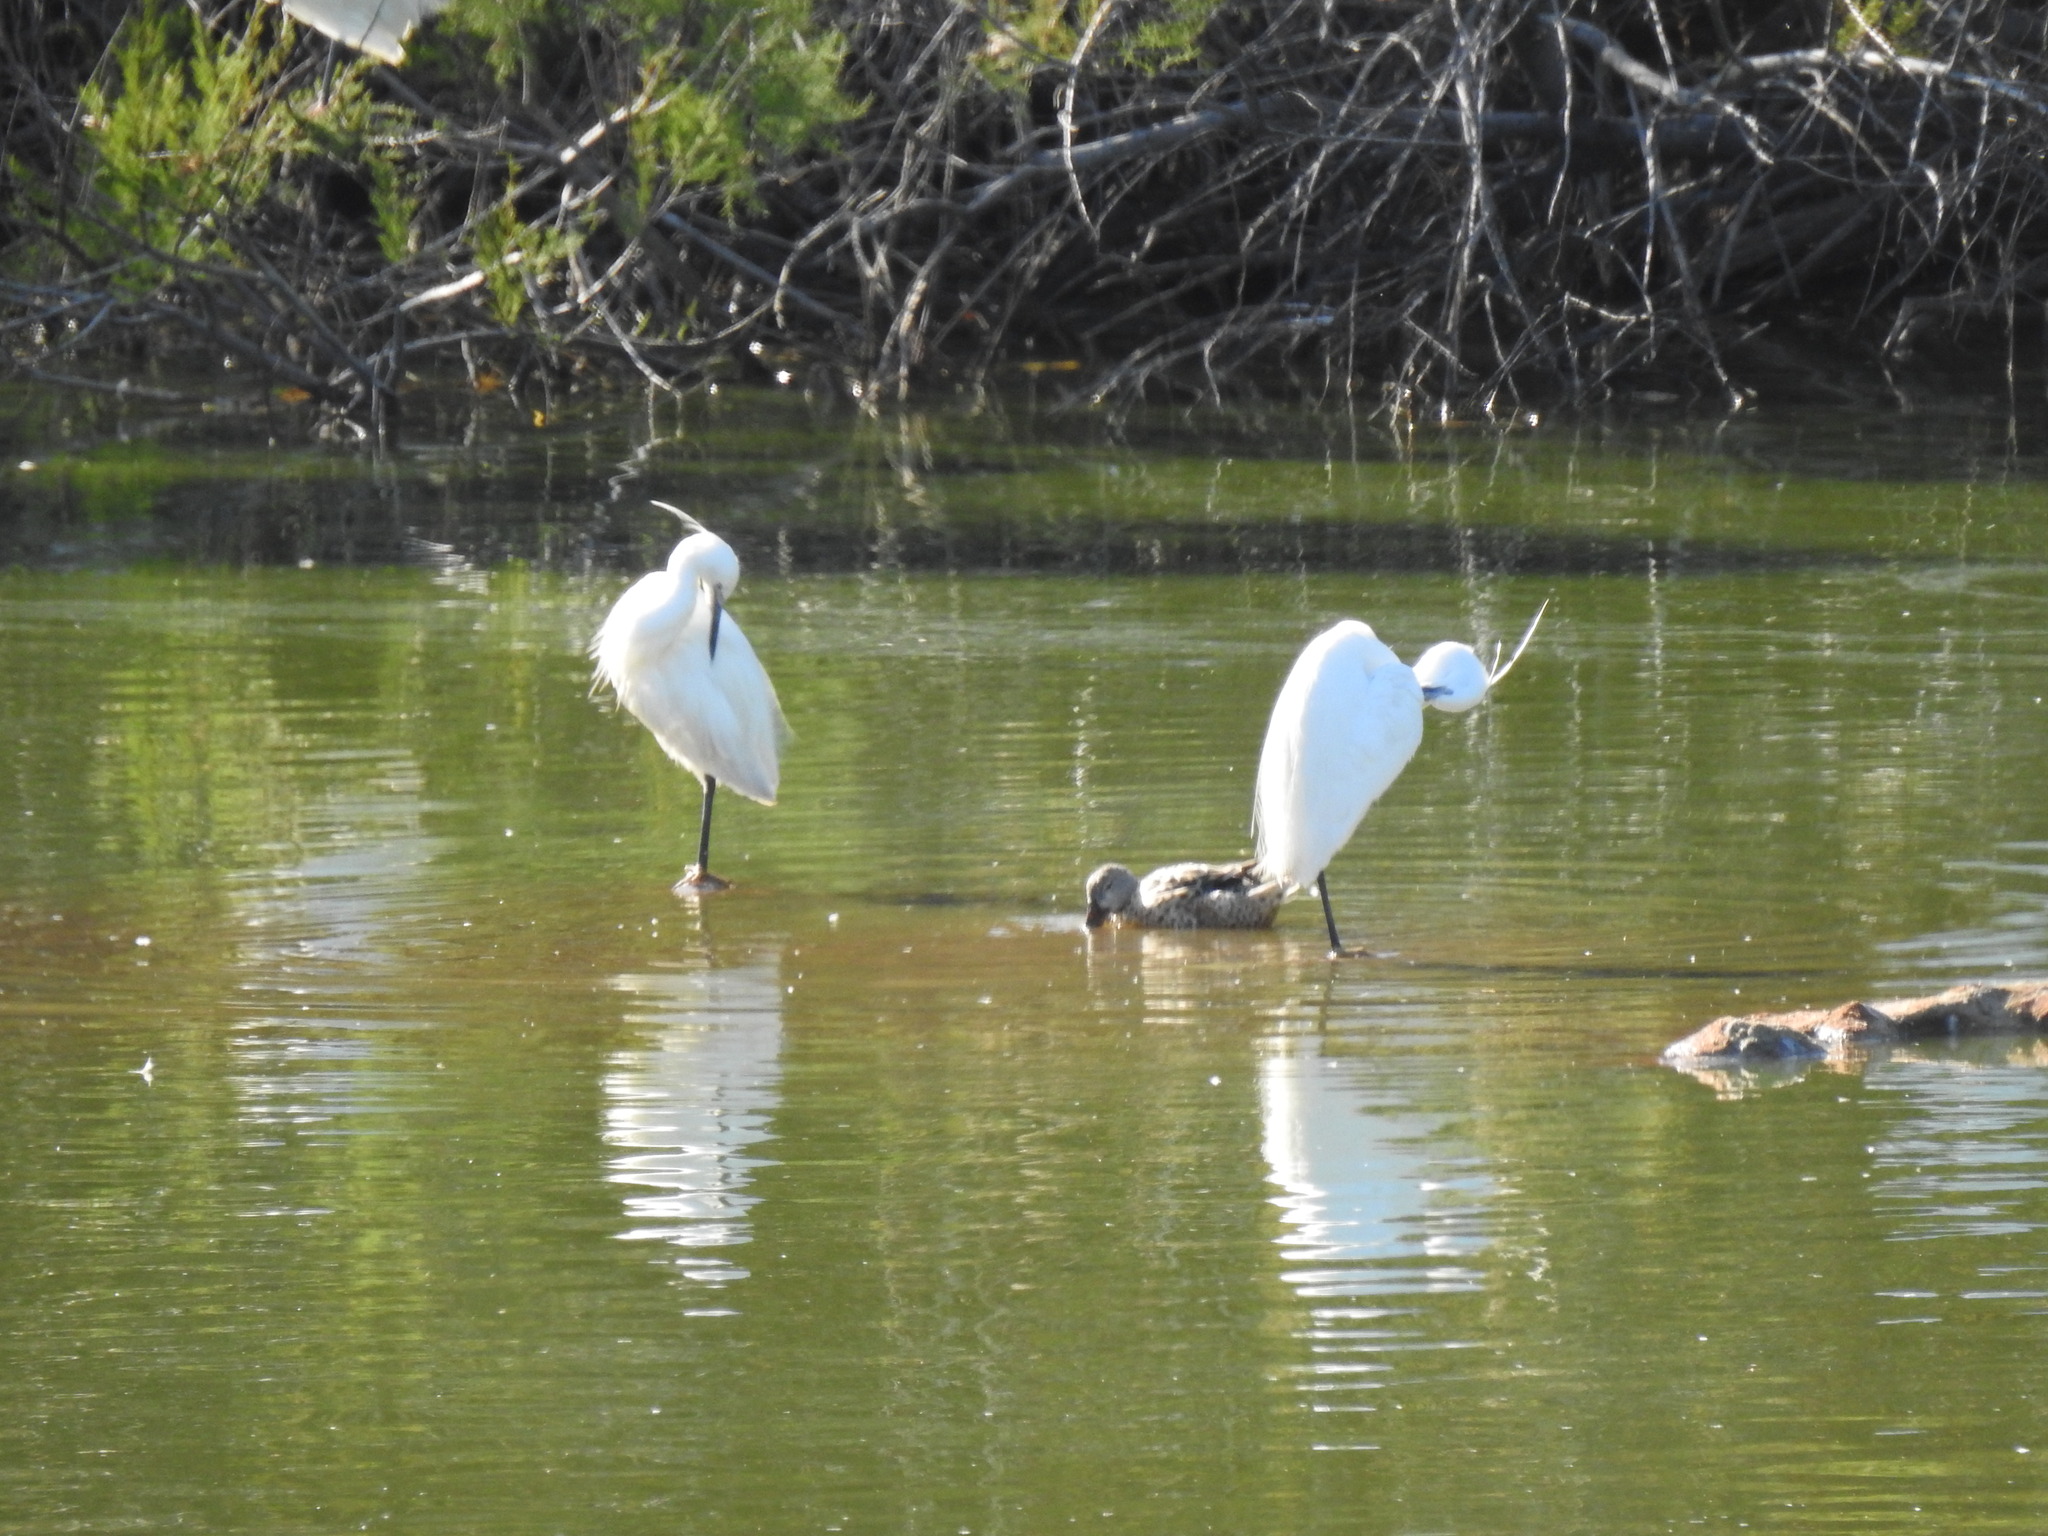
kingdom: Animalia
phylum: Chordata
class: Aves
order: Pelecaniformes
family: Ardeidae
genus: Egretta
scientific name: Egretta garzetta
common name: Little egret
